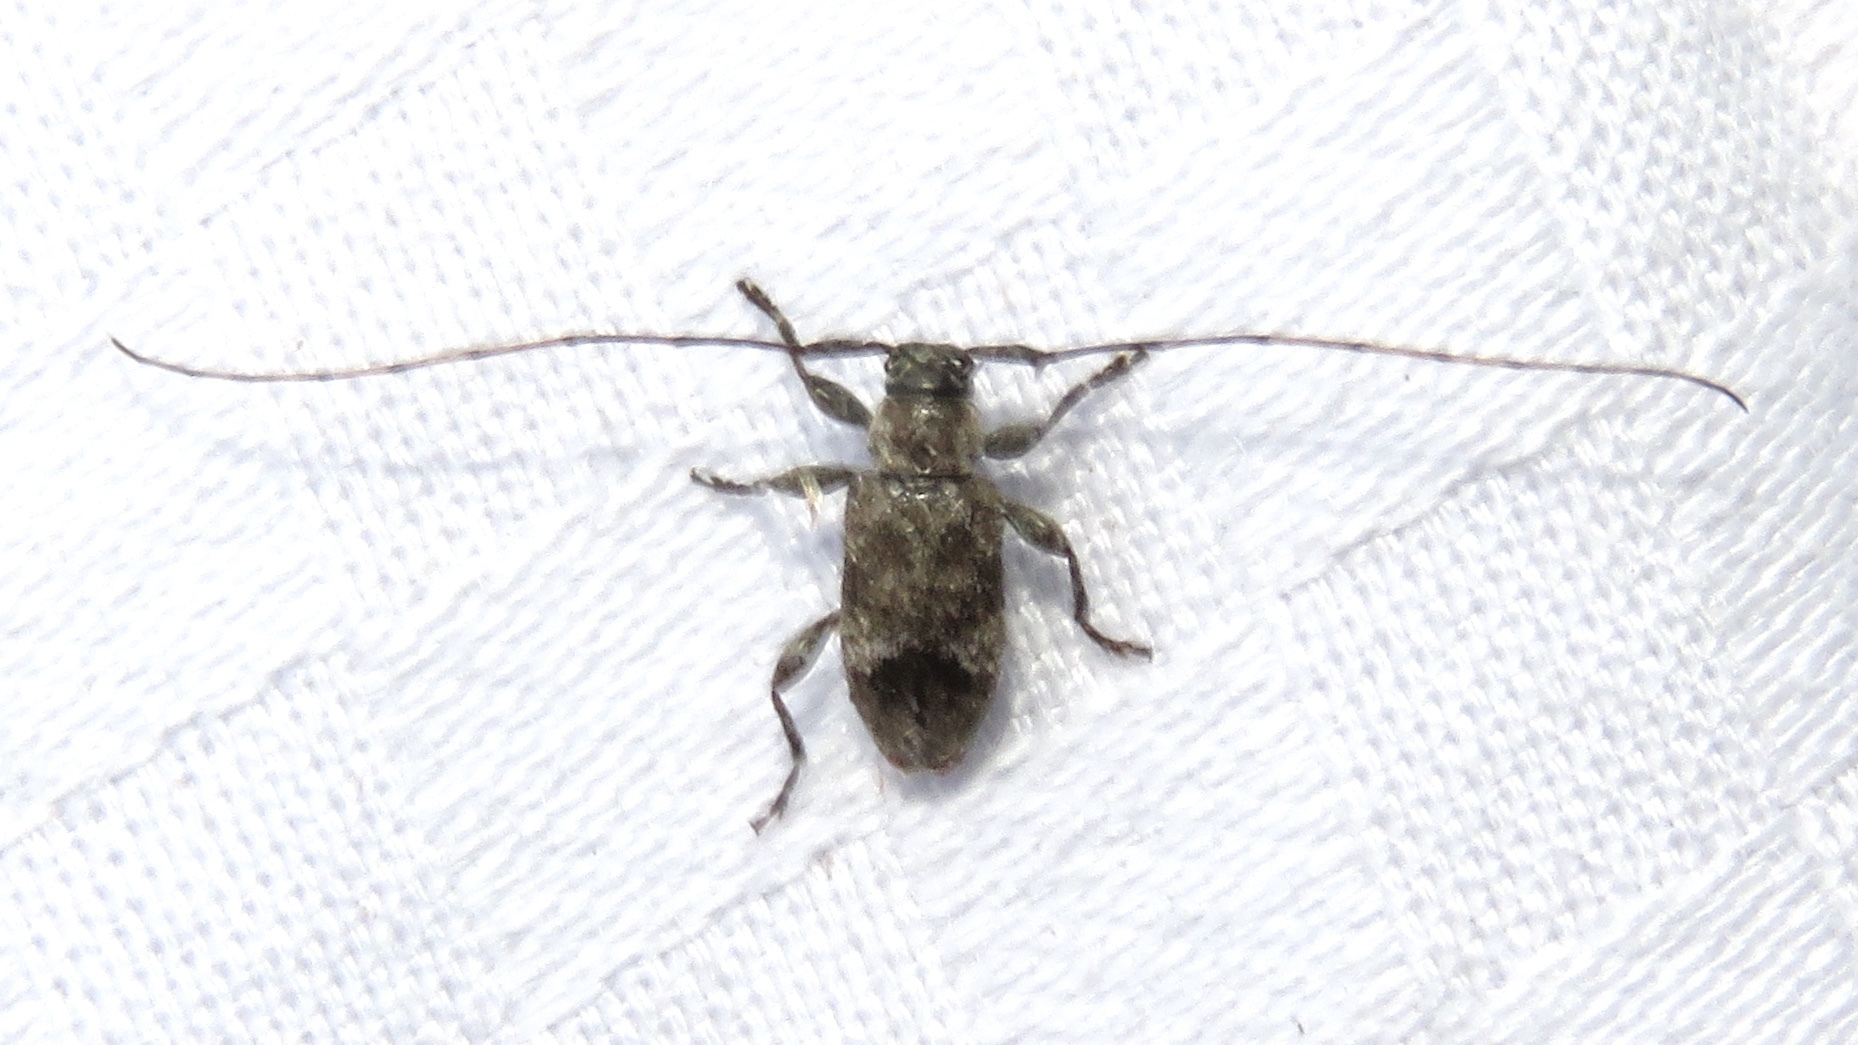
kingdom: Animalia
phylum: Arthropoda
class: Insecta
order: Coleoptera
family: Cerambycidae
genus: Sternidius
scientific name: Sternidius misellus
